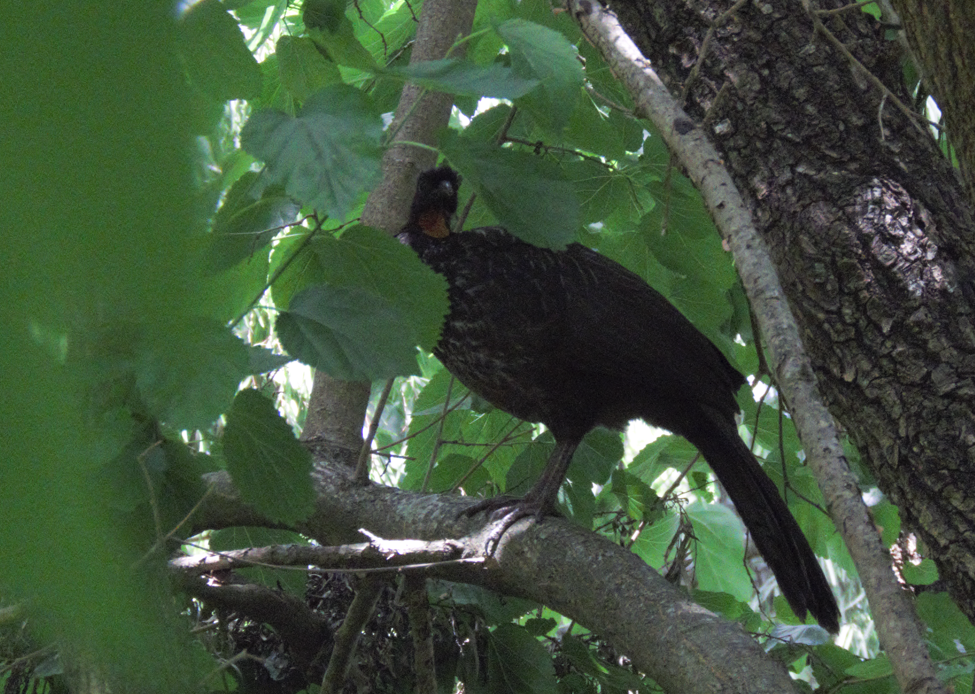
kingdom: Animalia
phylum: Chordata
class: Aves
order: Galliformes
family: Cracidae
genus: Penelope
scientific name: Penelope obscura
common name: Dusky-legged guan
